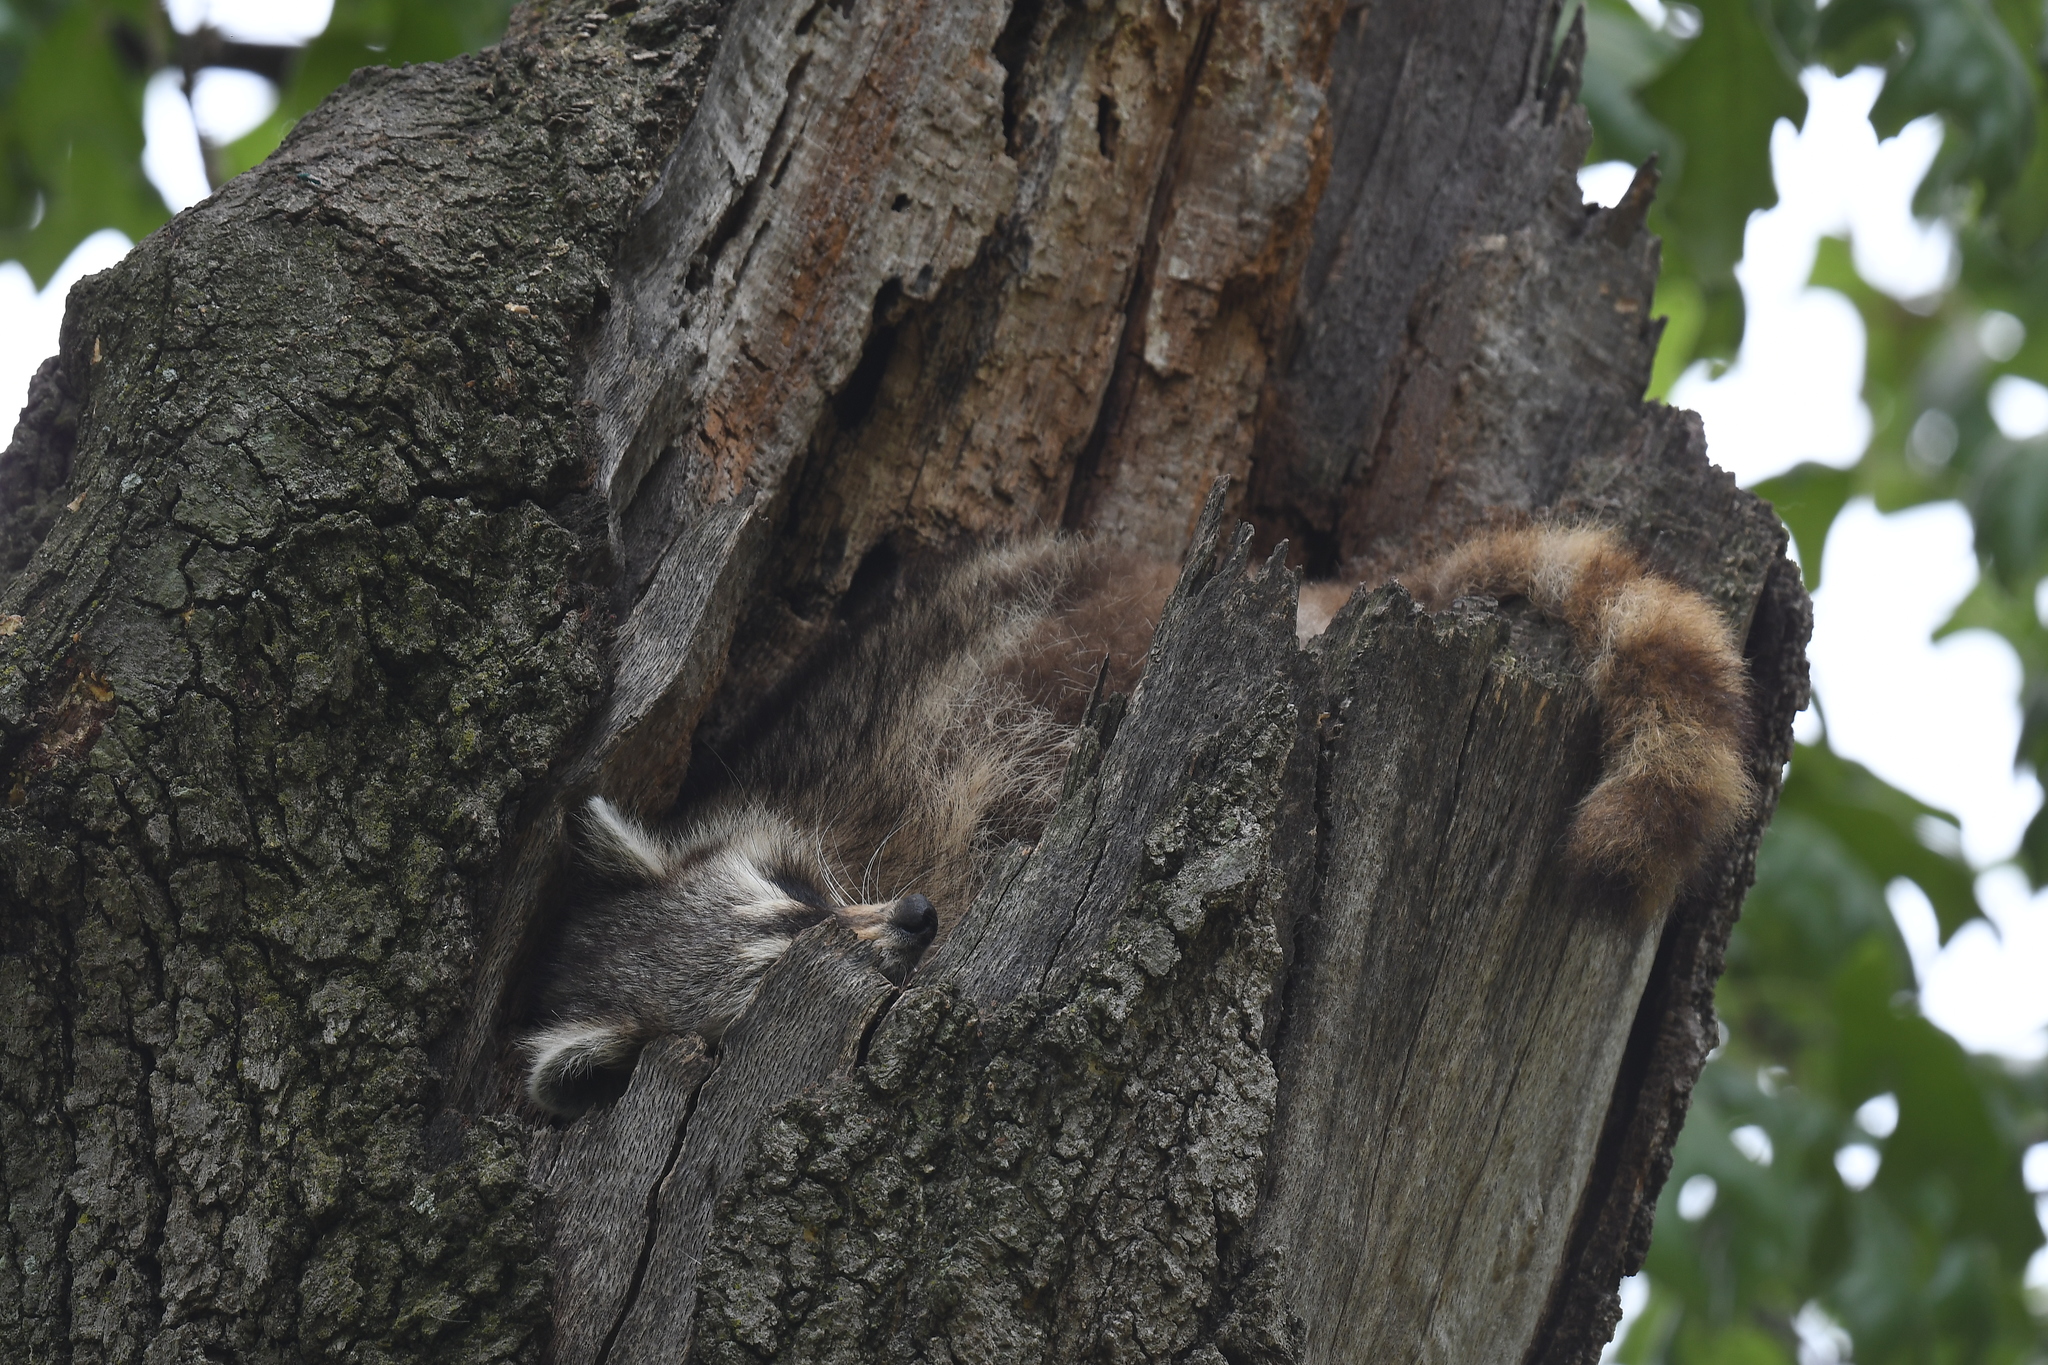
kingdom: Animalia
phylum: Chordata
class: Mammalia
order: Carnivora
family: Procyonidae
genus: Procyon
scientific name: Procyon lotor
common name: Raccoon
